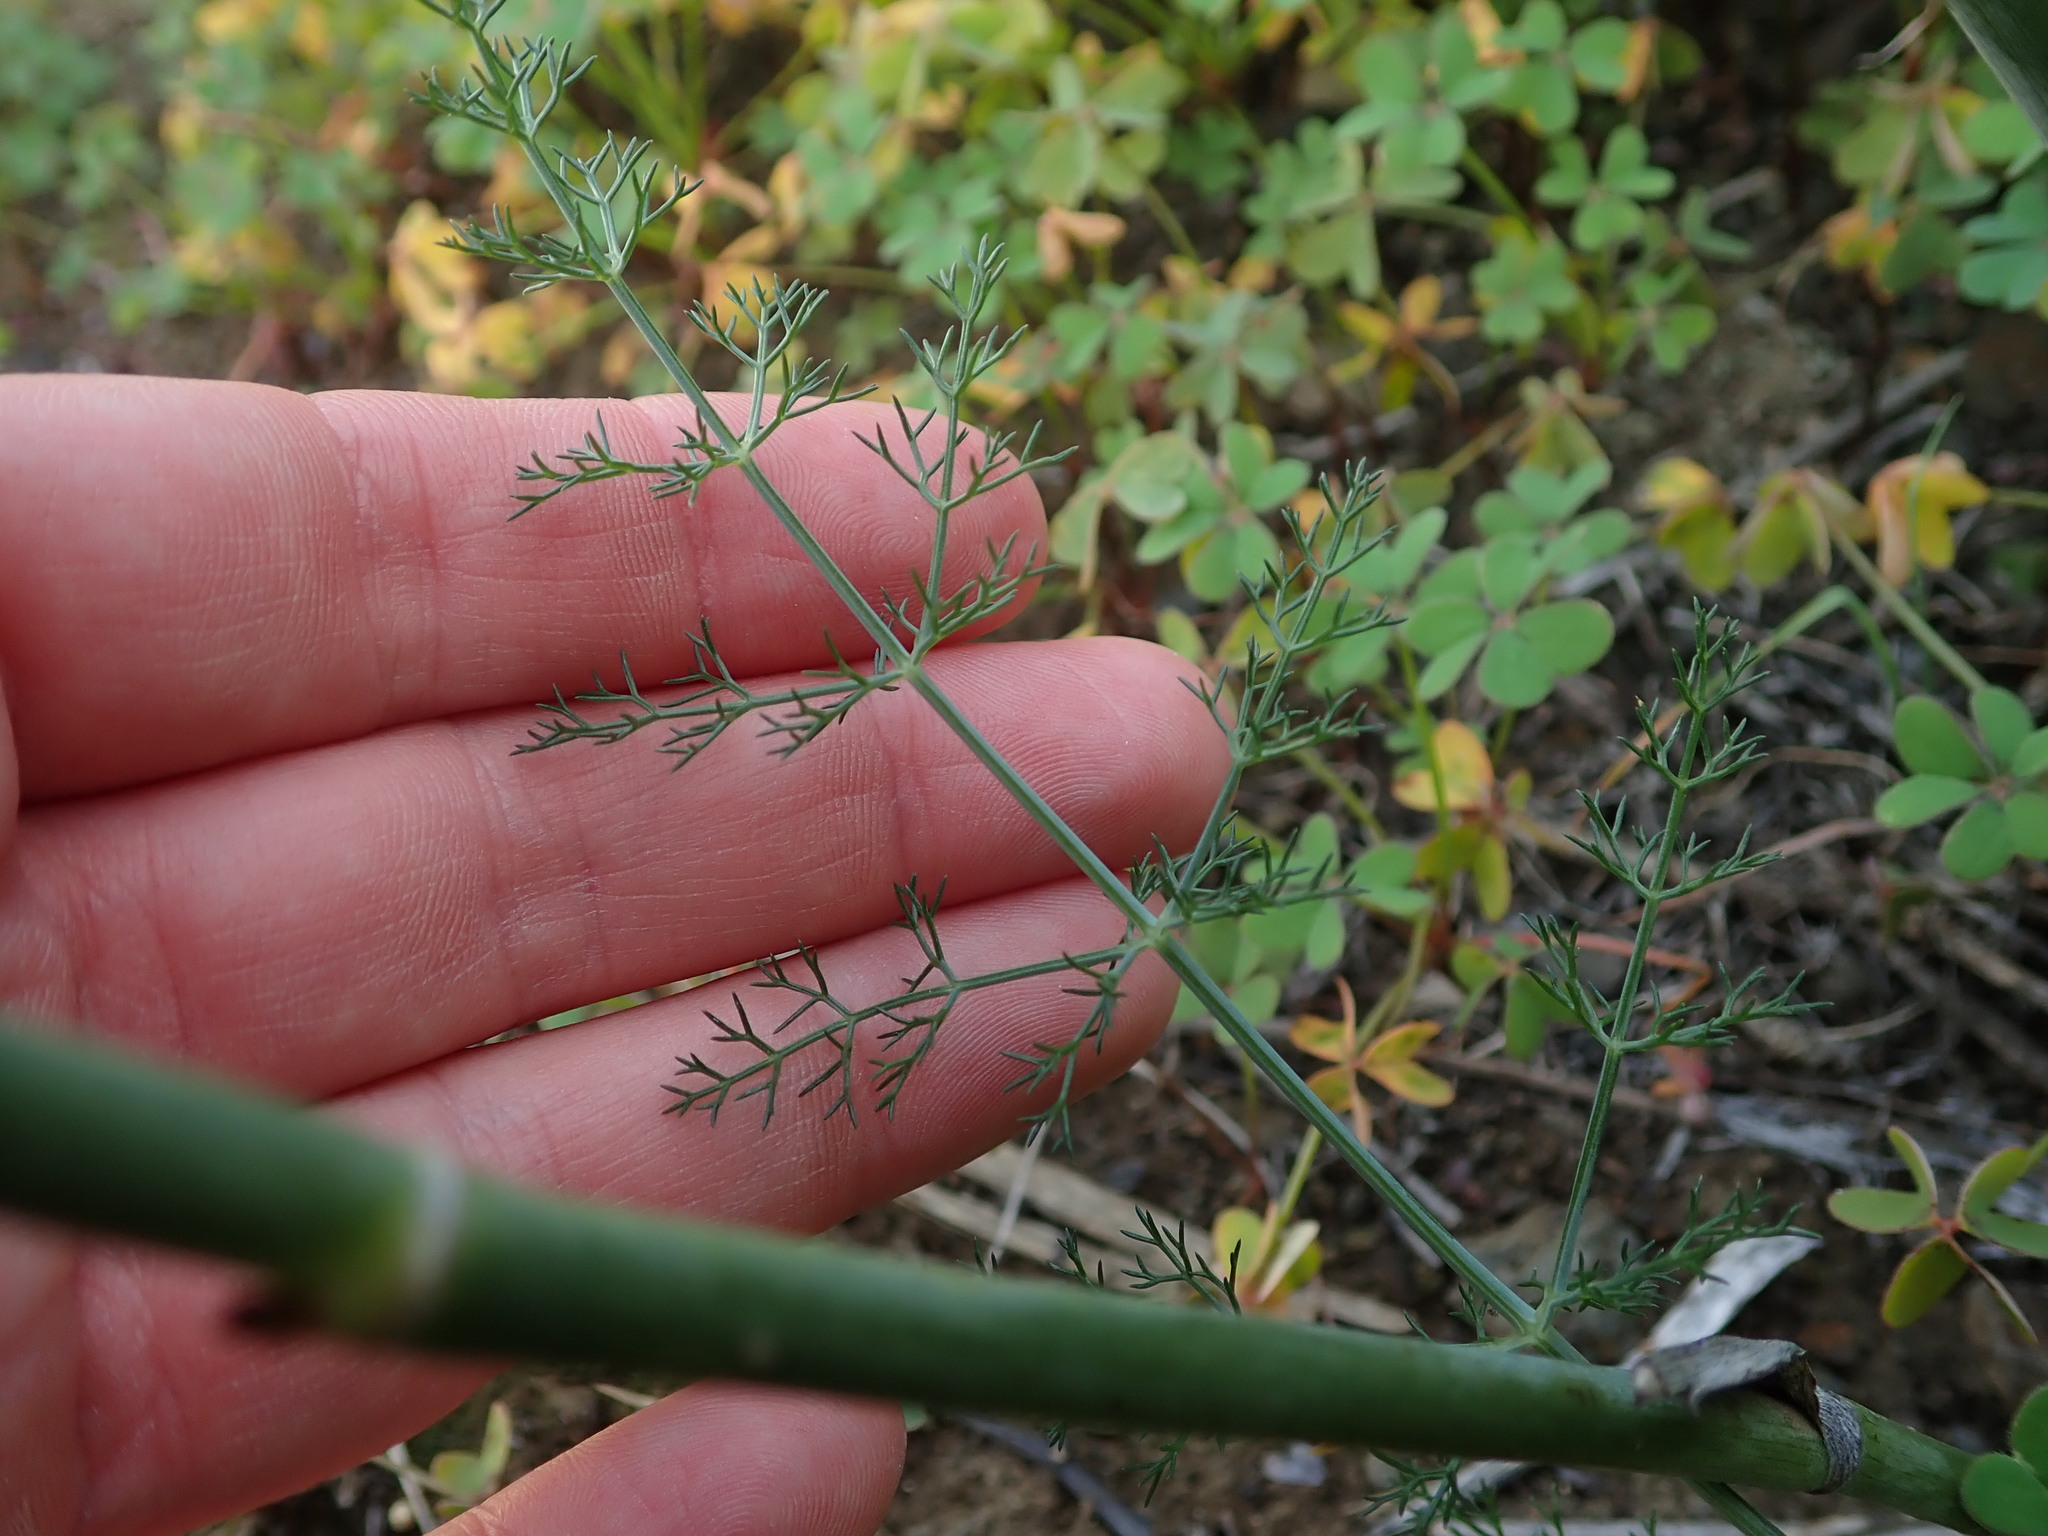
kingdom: Plantae
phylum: Tracheophyta
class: Magnoliopsida
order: Apiales
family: Apiaceae
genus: Foeniculum
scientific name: Foeniculum vulgare
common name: Fennel
